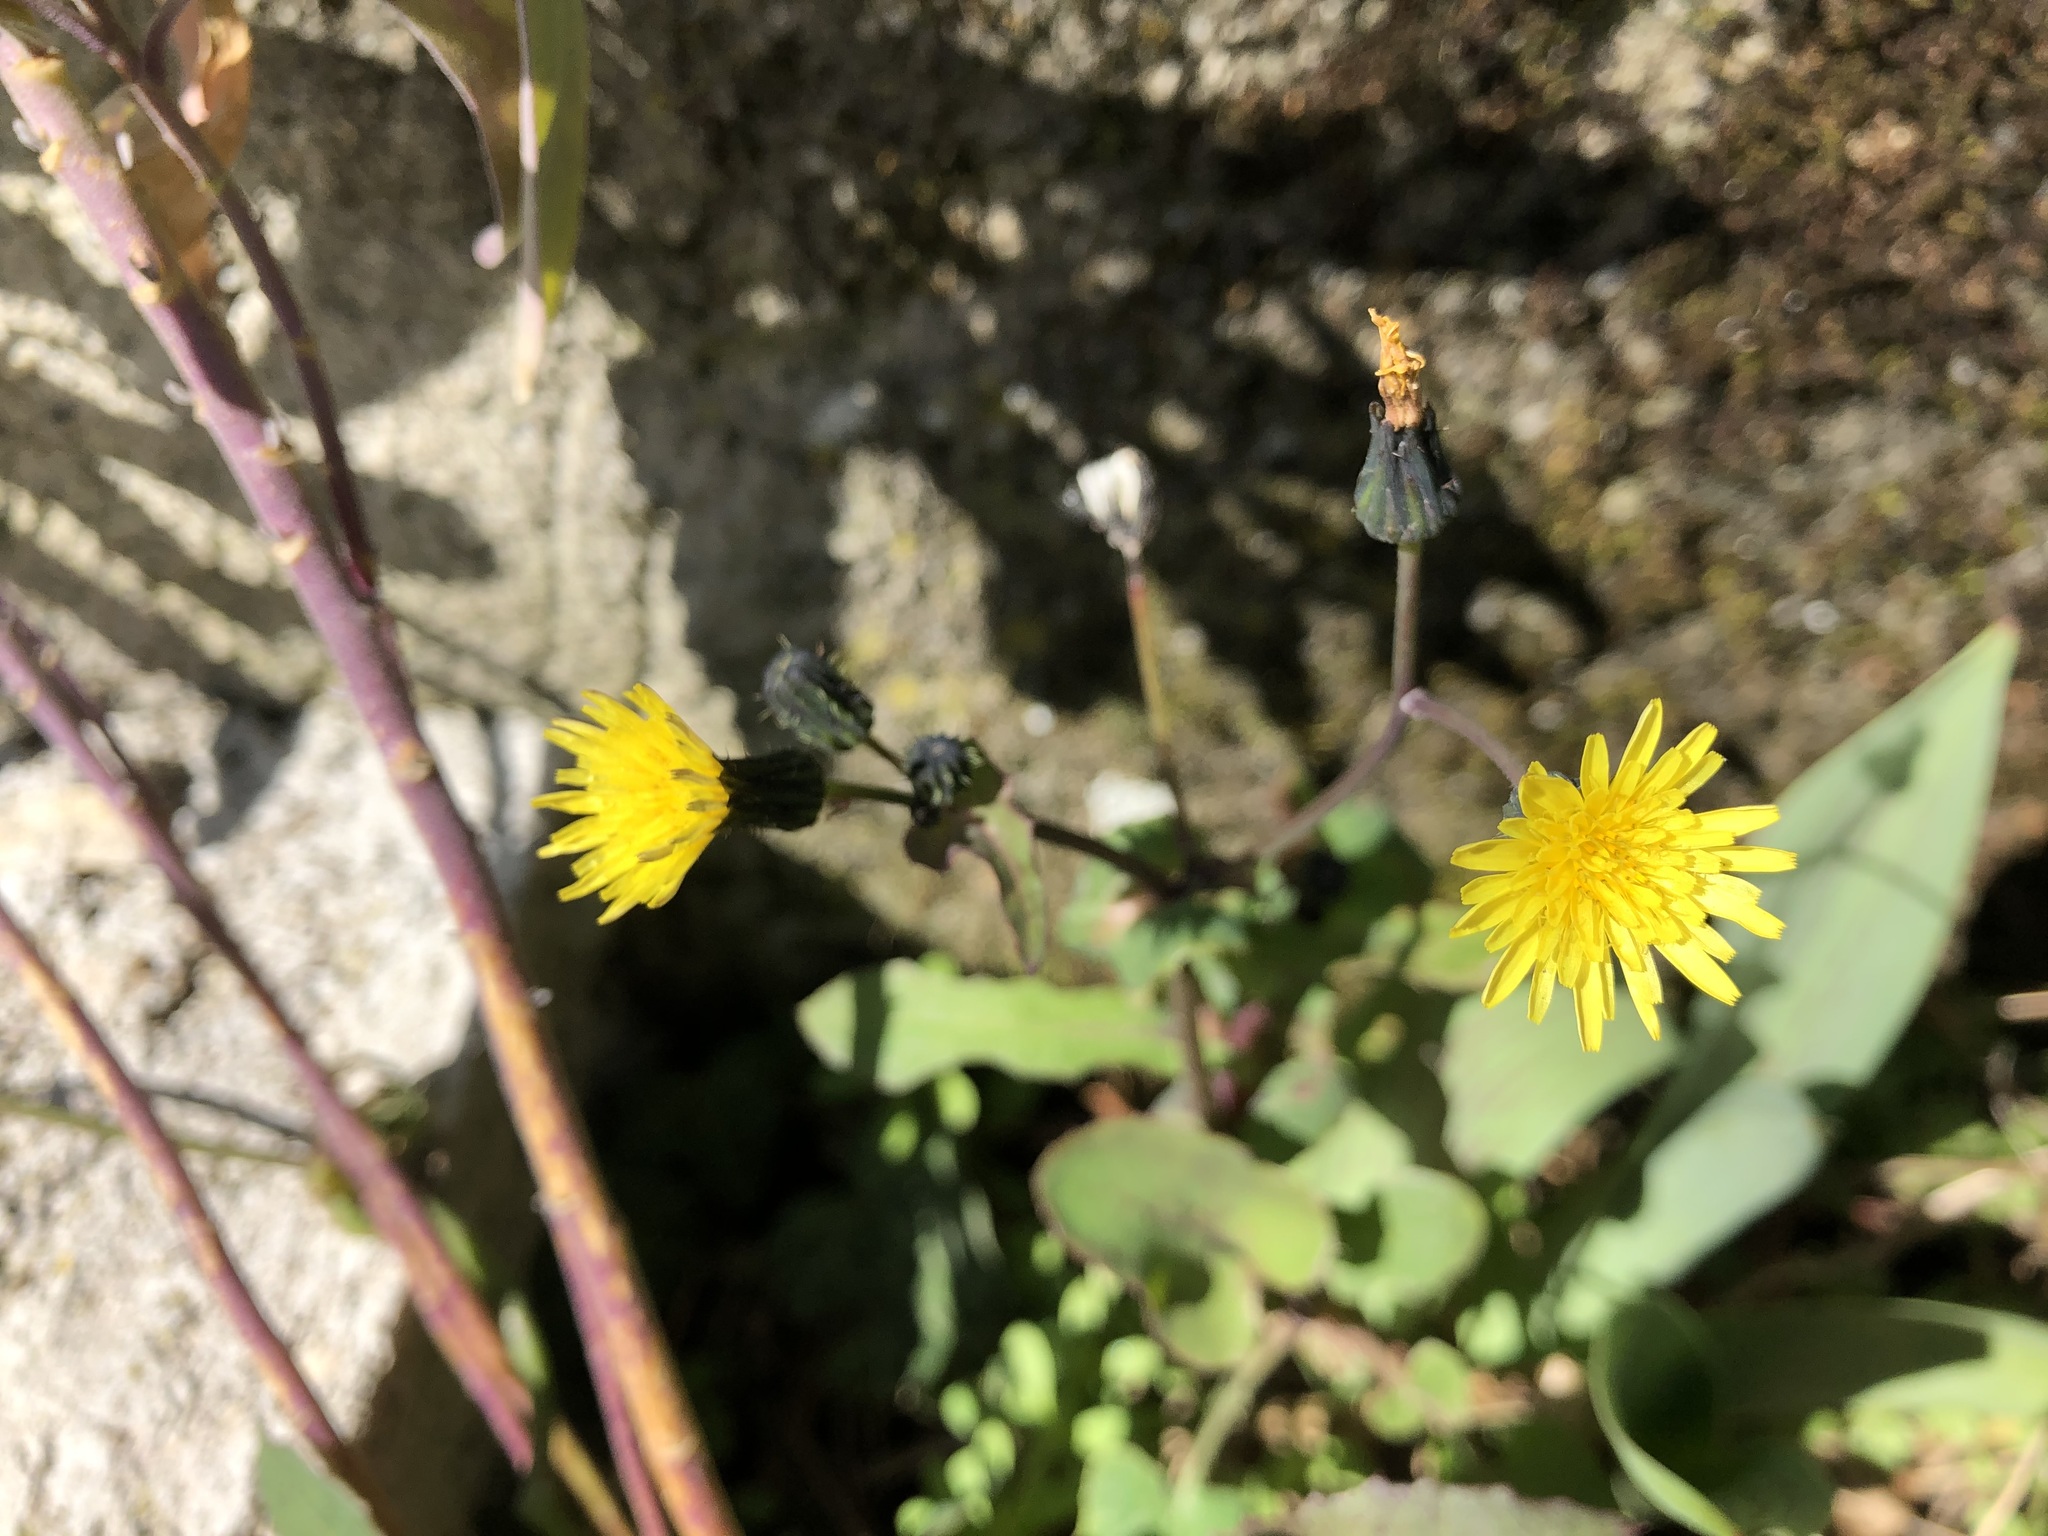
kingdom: Plantae
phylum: Tracheophyta
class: Magnoliopsida
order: Asterales
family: Asteraceae
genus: Sonchus
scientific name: Sonchus oleraceus
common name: Common sowthistle
